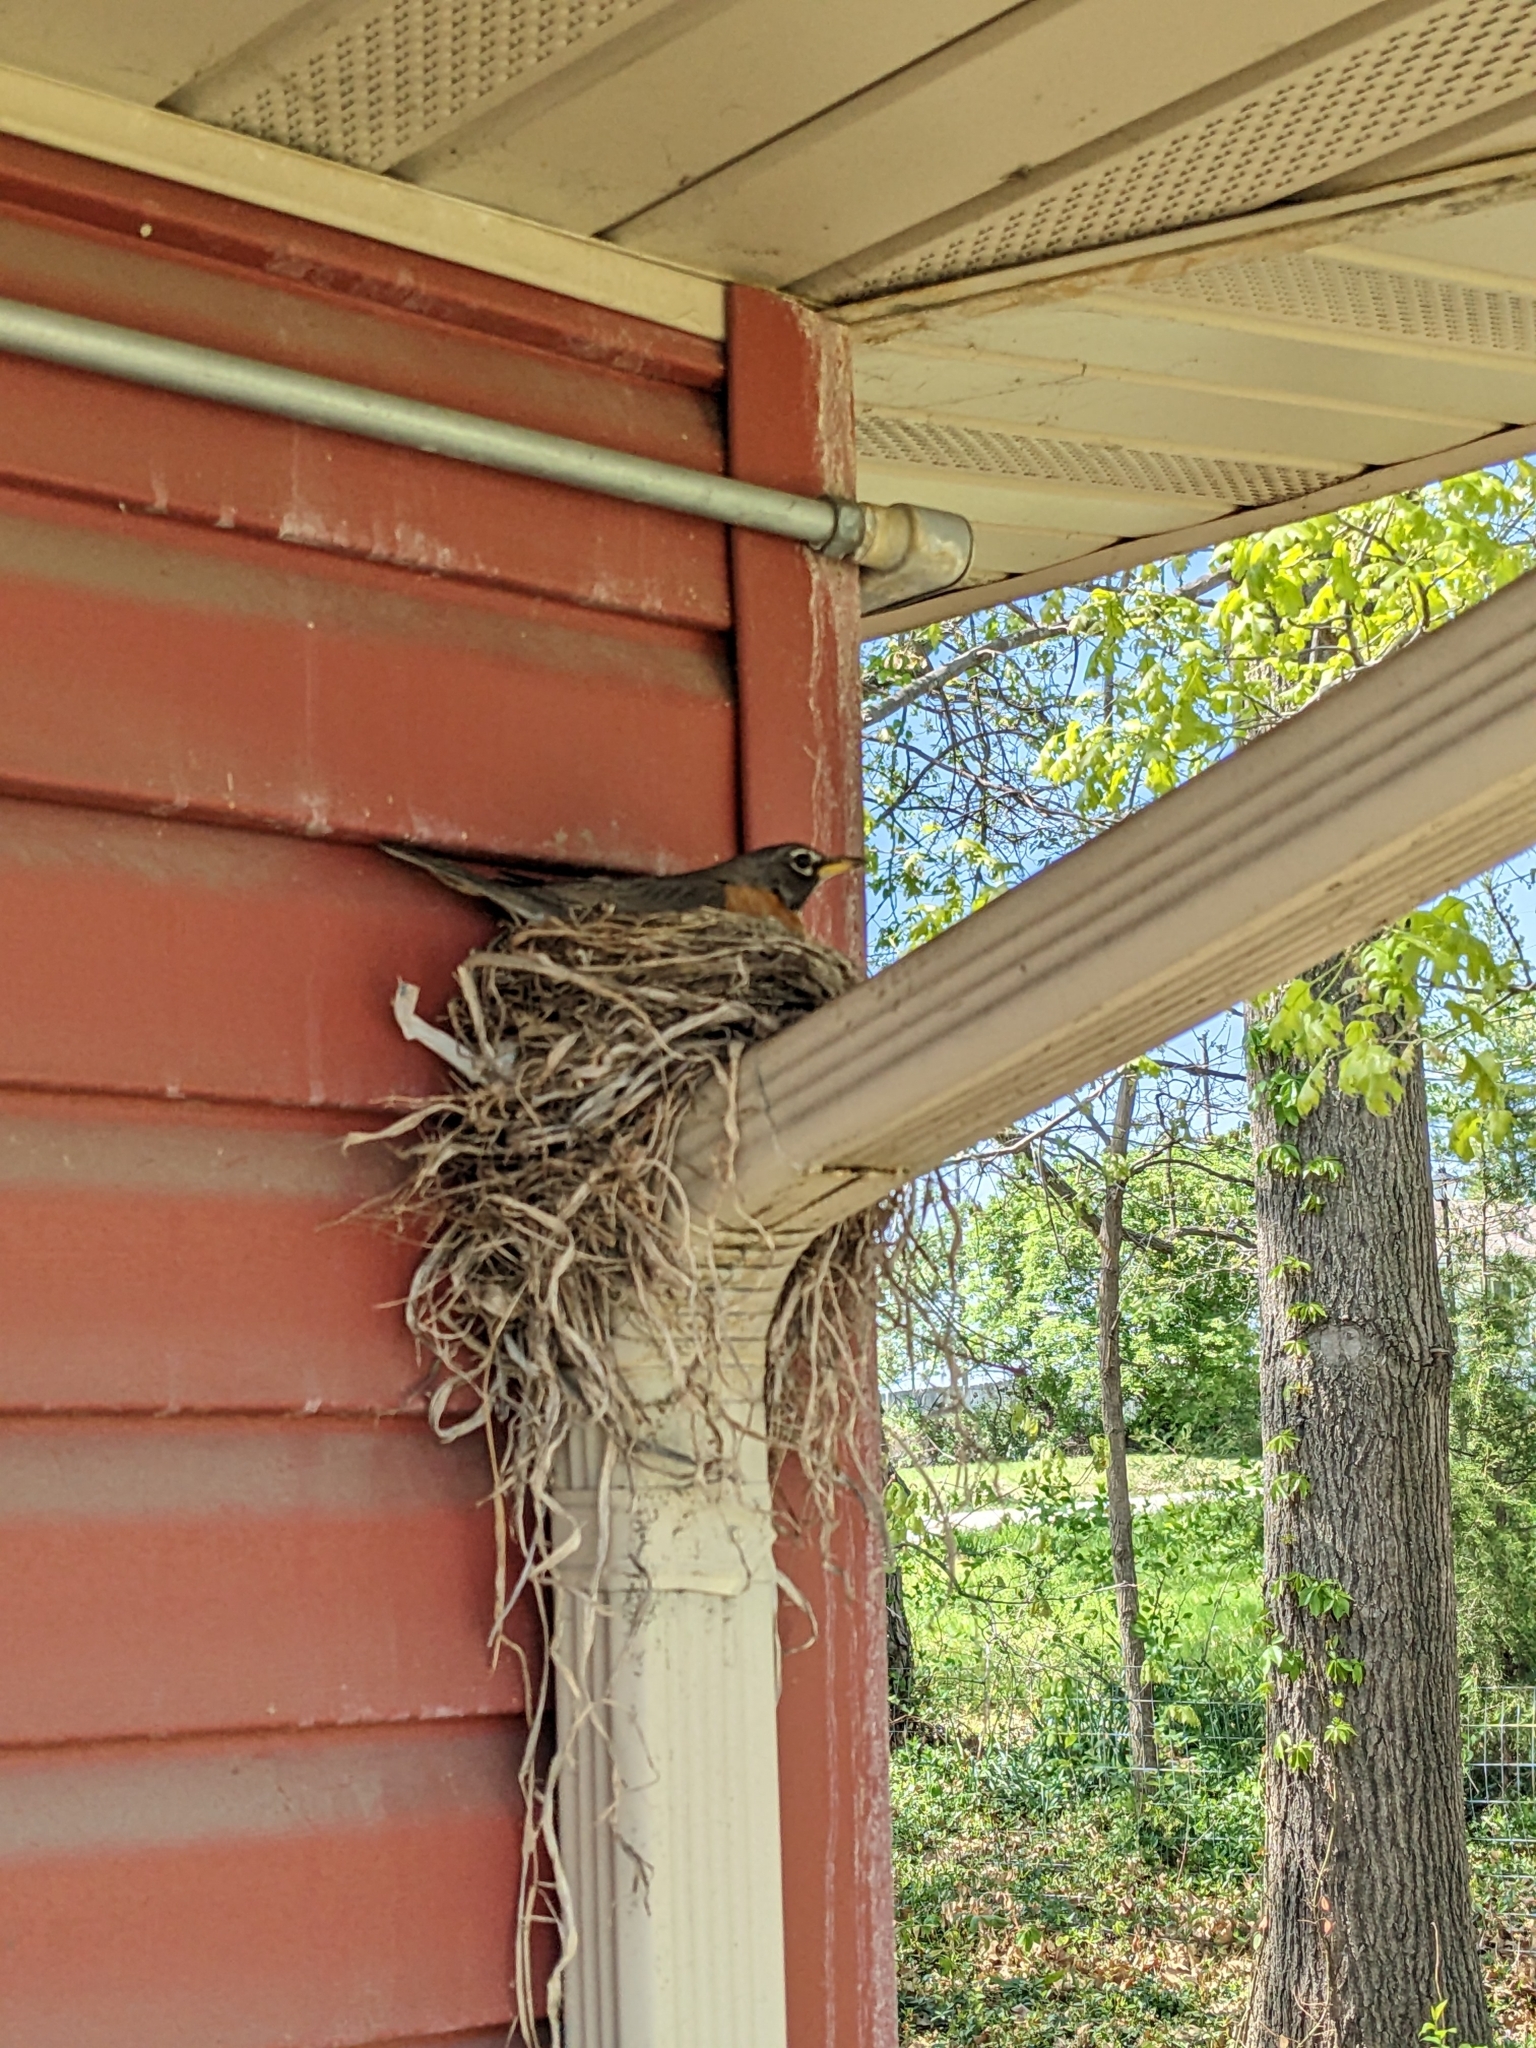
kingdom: Animalia
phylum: Chordata
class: Aves
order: Passeriformes
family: Turdidae
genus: Turdus
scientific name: Turdus migratorius
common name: American robin
